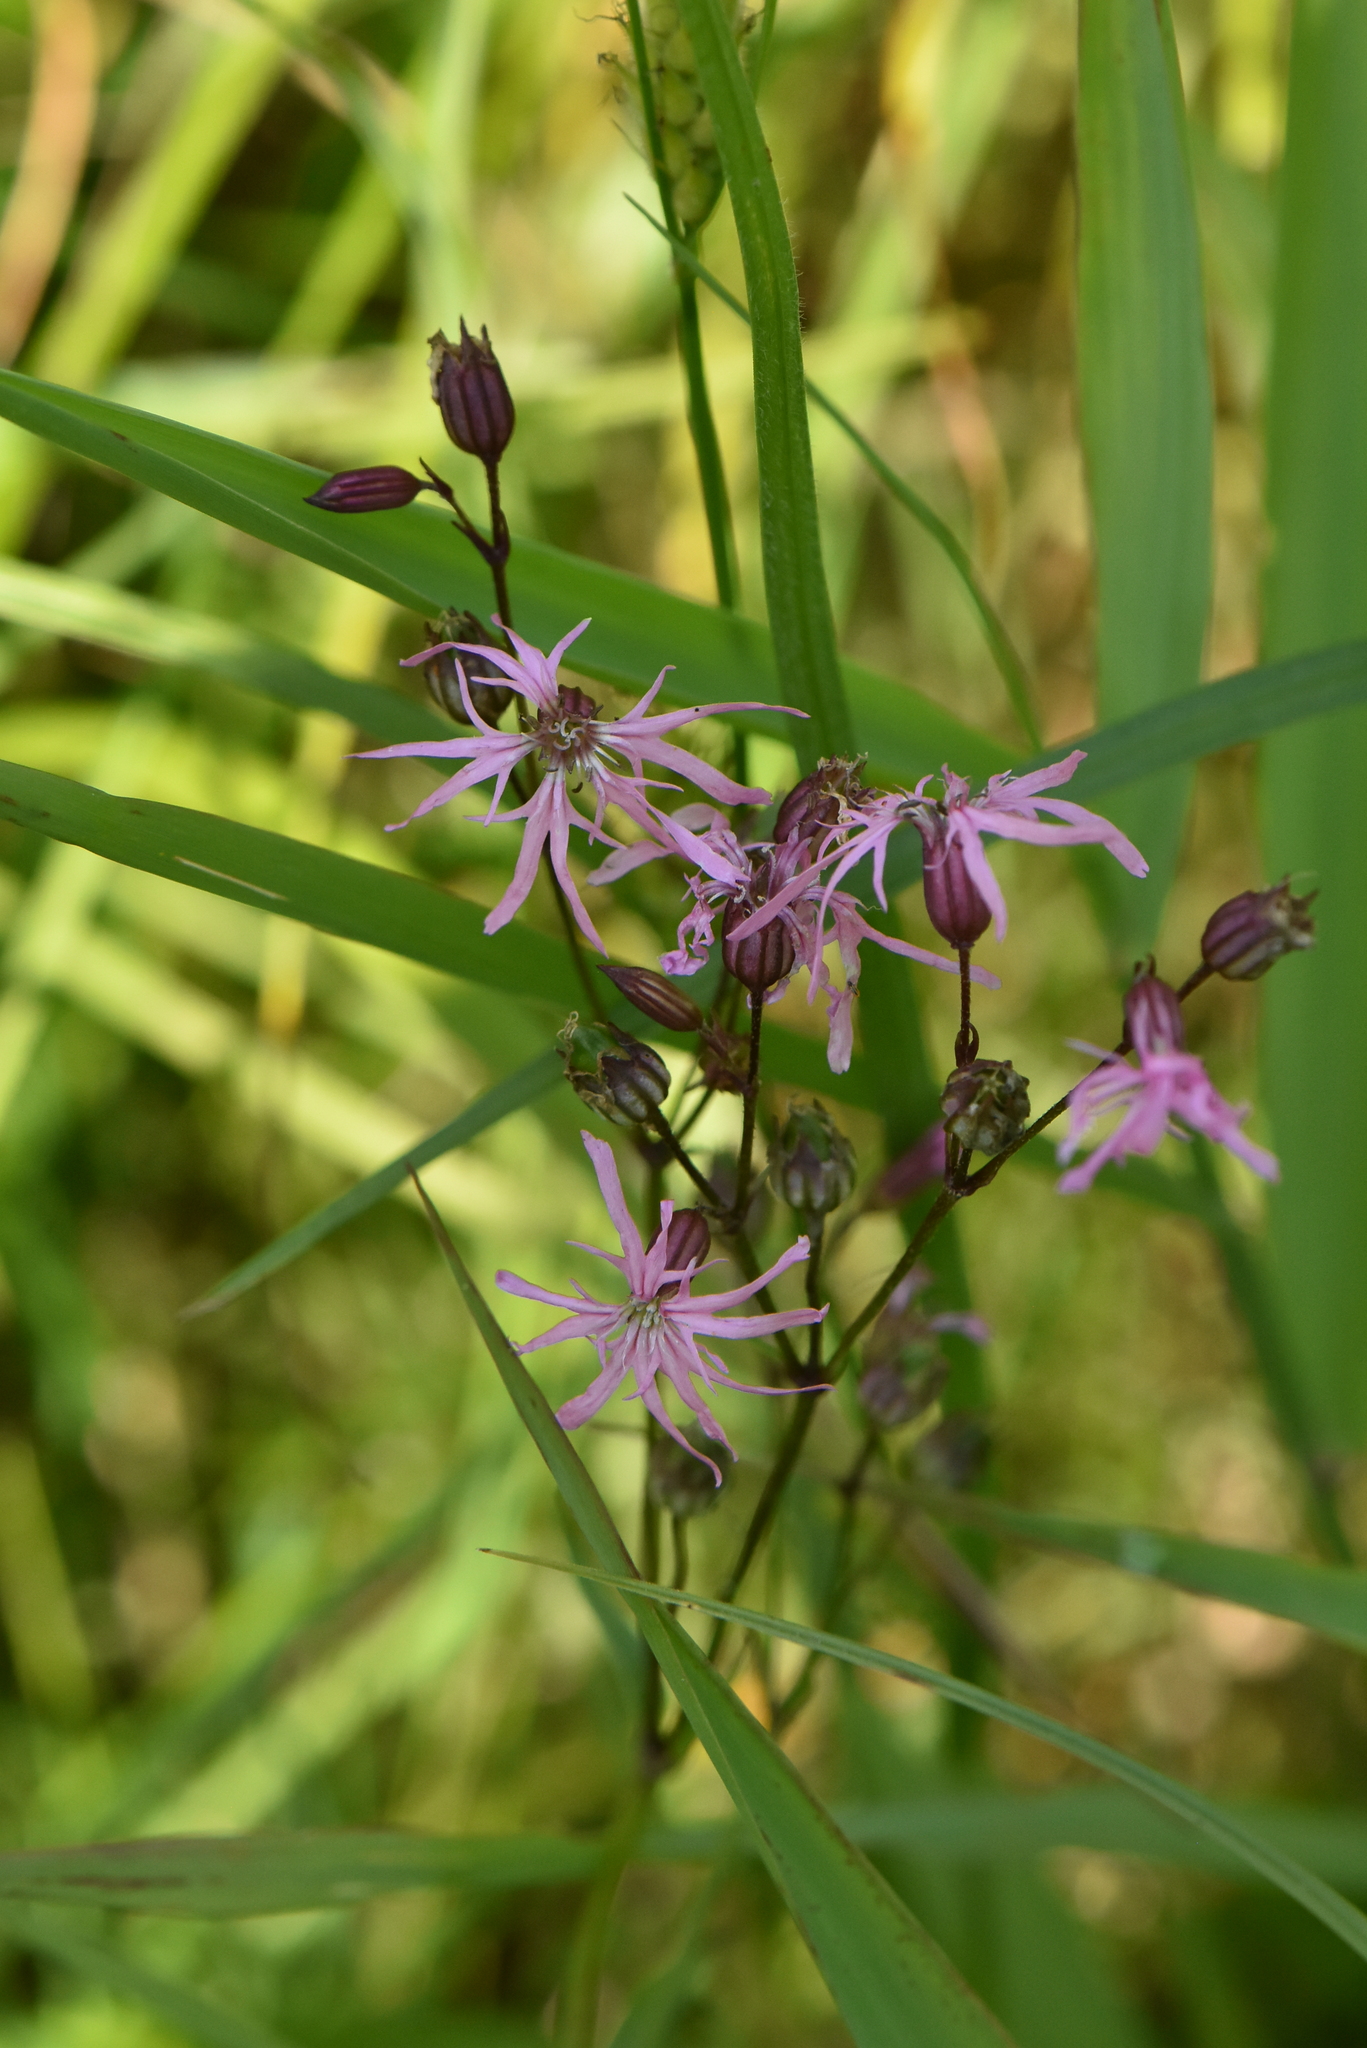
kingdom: Plantae
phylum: Tracheophyta
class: Magnoliopsida
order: Caryophyllales
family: Caryophyllaceae
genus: Silene
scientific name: Silene flos-cuculi
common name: Ragged-robin
